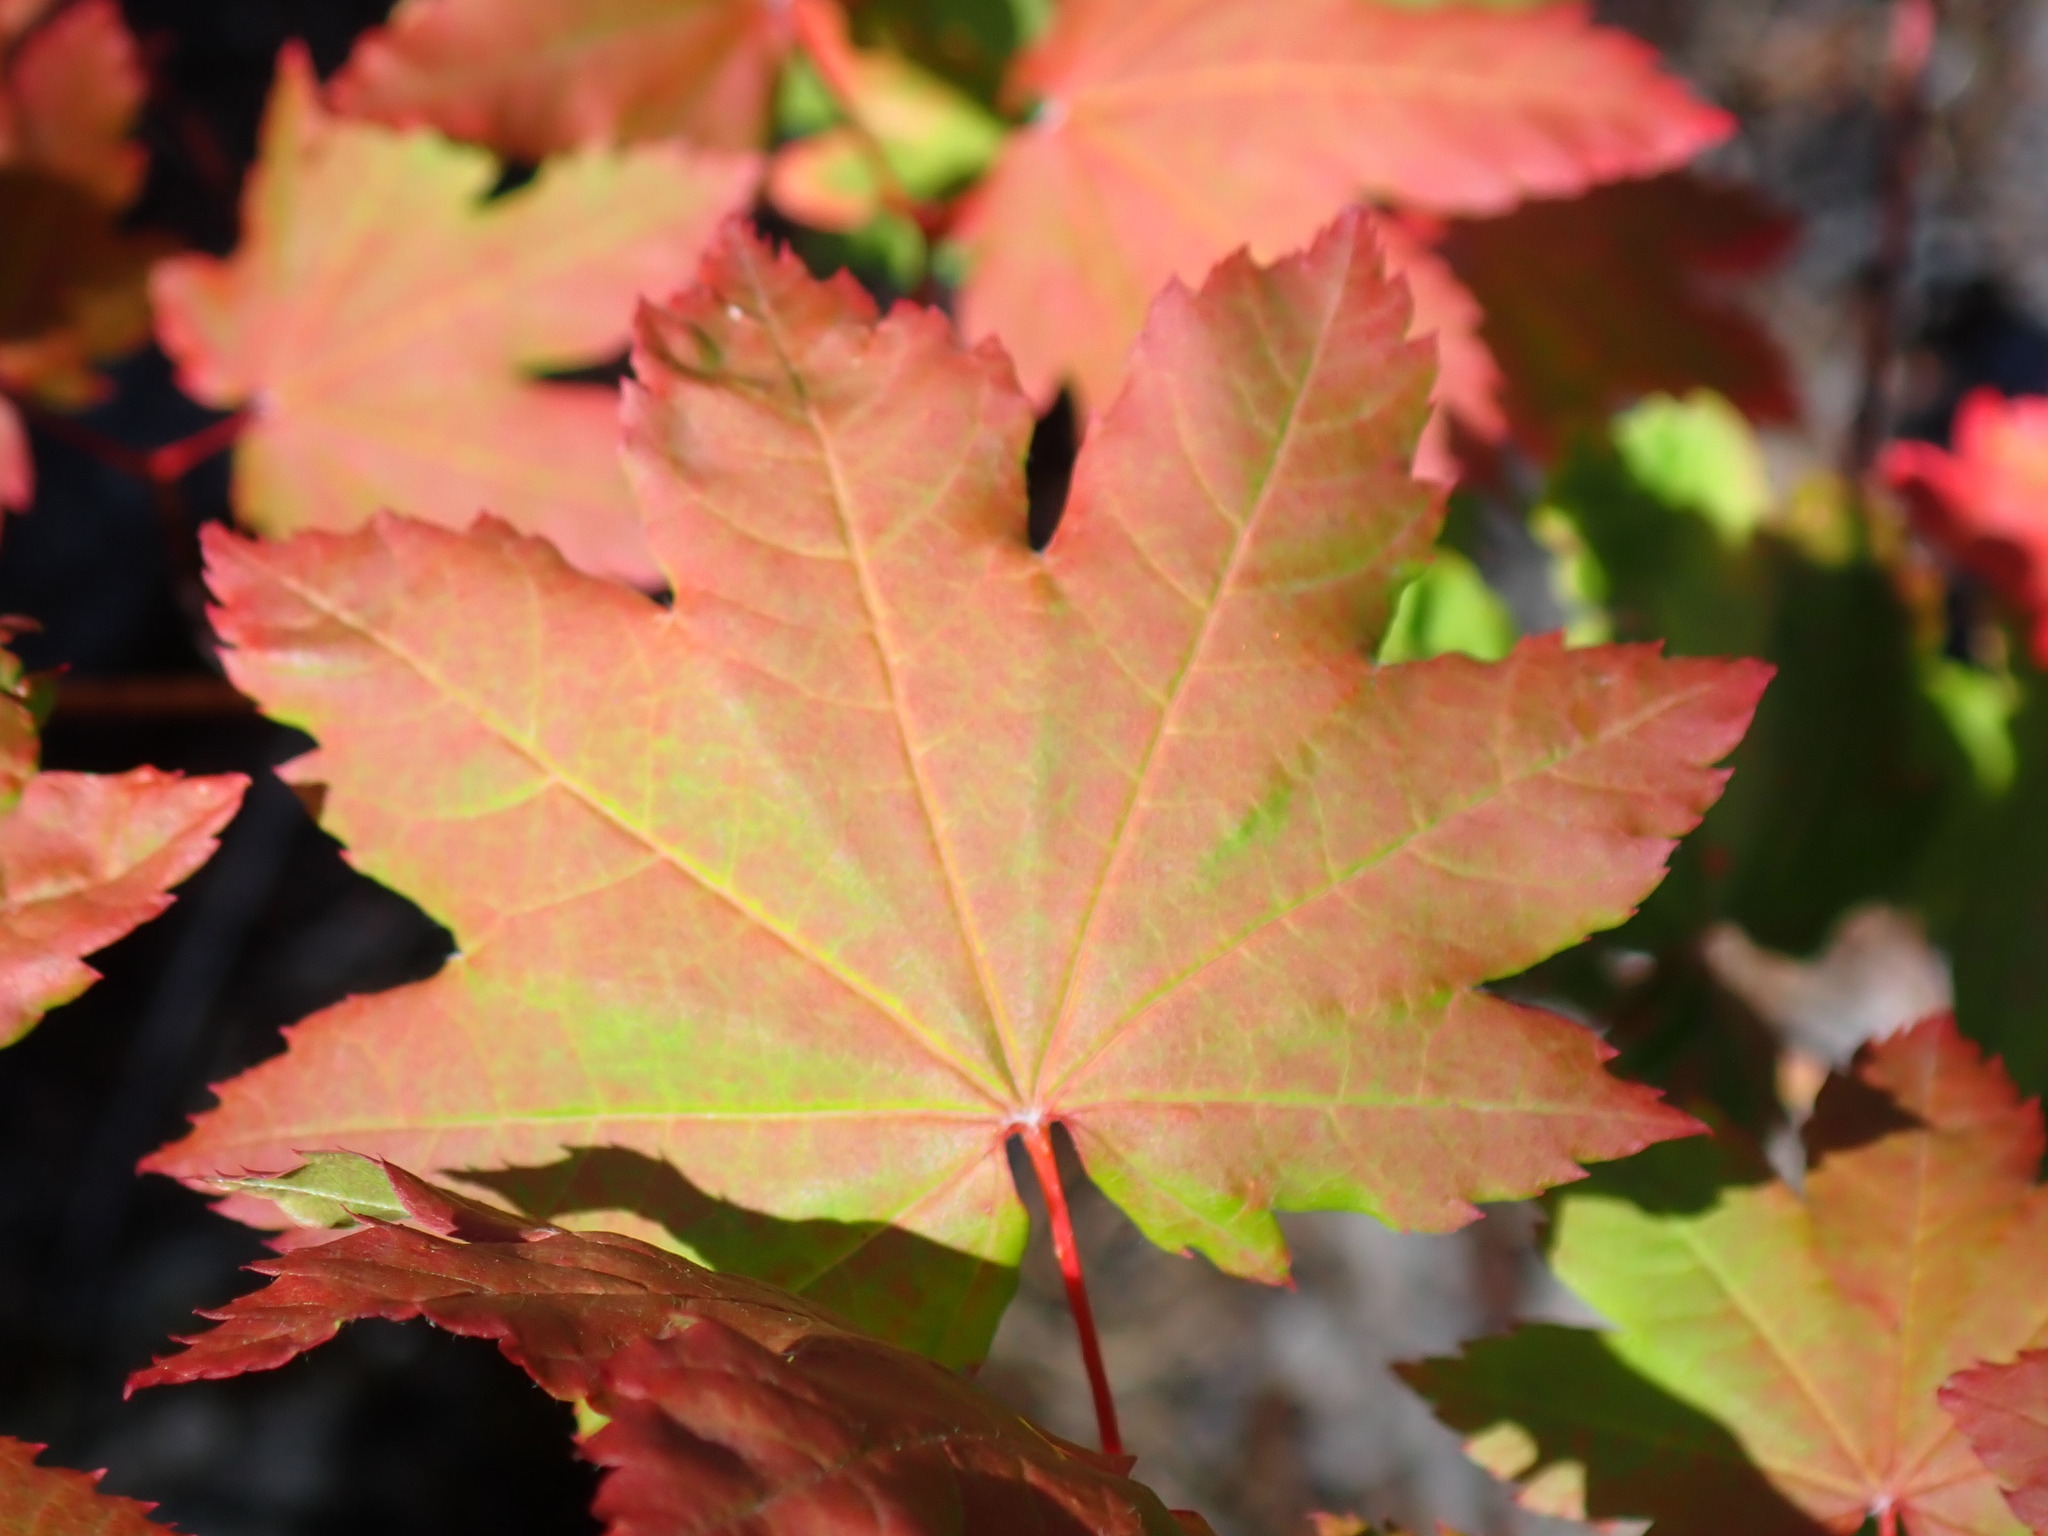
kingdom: Plantae
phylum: Tracheophyta
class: Magnoliopsida
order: Sapindales
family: Sapindaceae
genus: Acer
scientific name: Acer circinatum
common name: Vine maple
